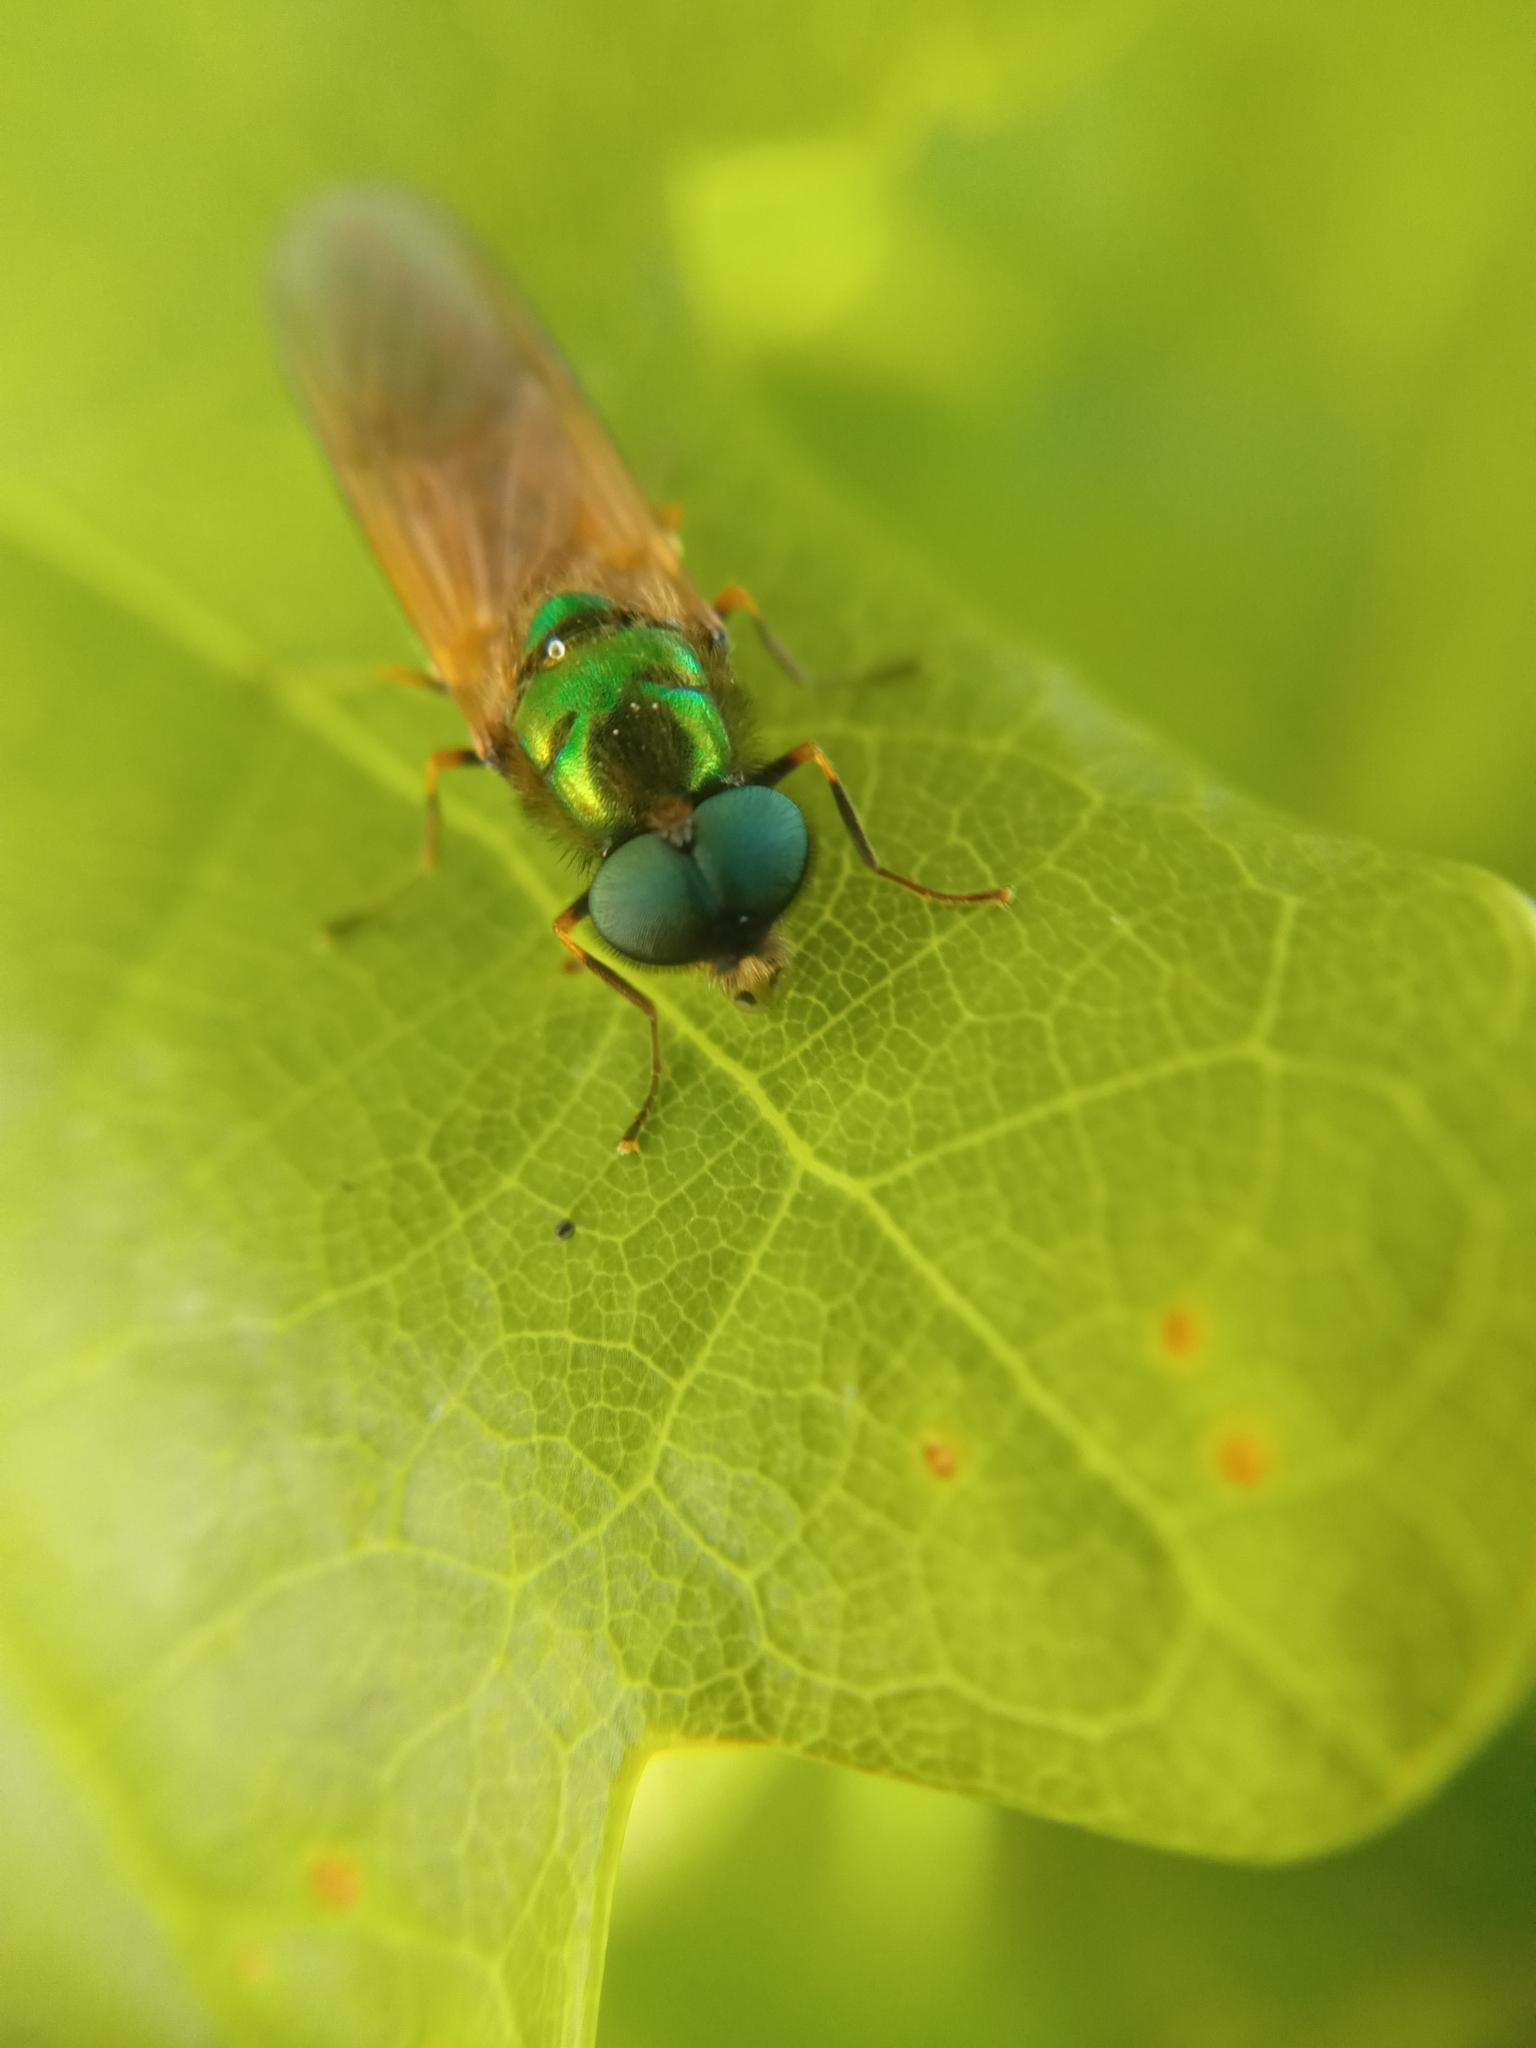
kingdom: Animalia
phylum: Arthropoda
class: Insecta
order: Diptera
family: Stratiomyidae
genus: Chloromyia
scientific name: Chloromyia formosa
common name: Soldier fly
